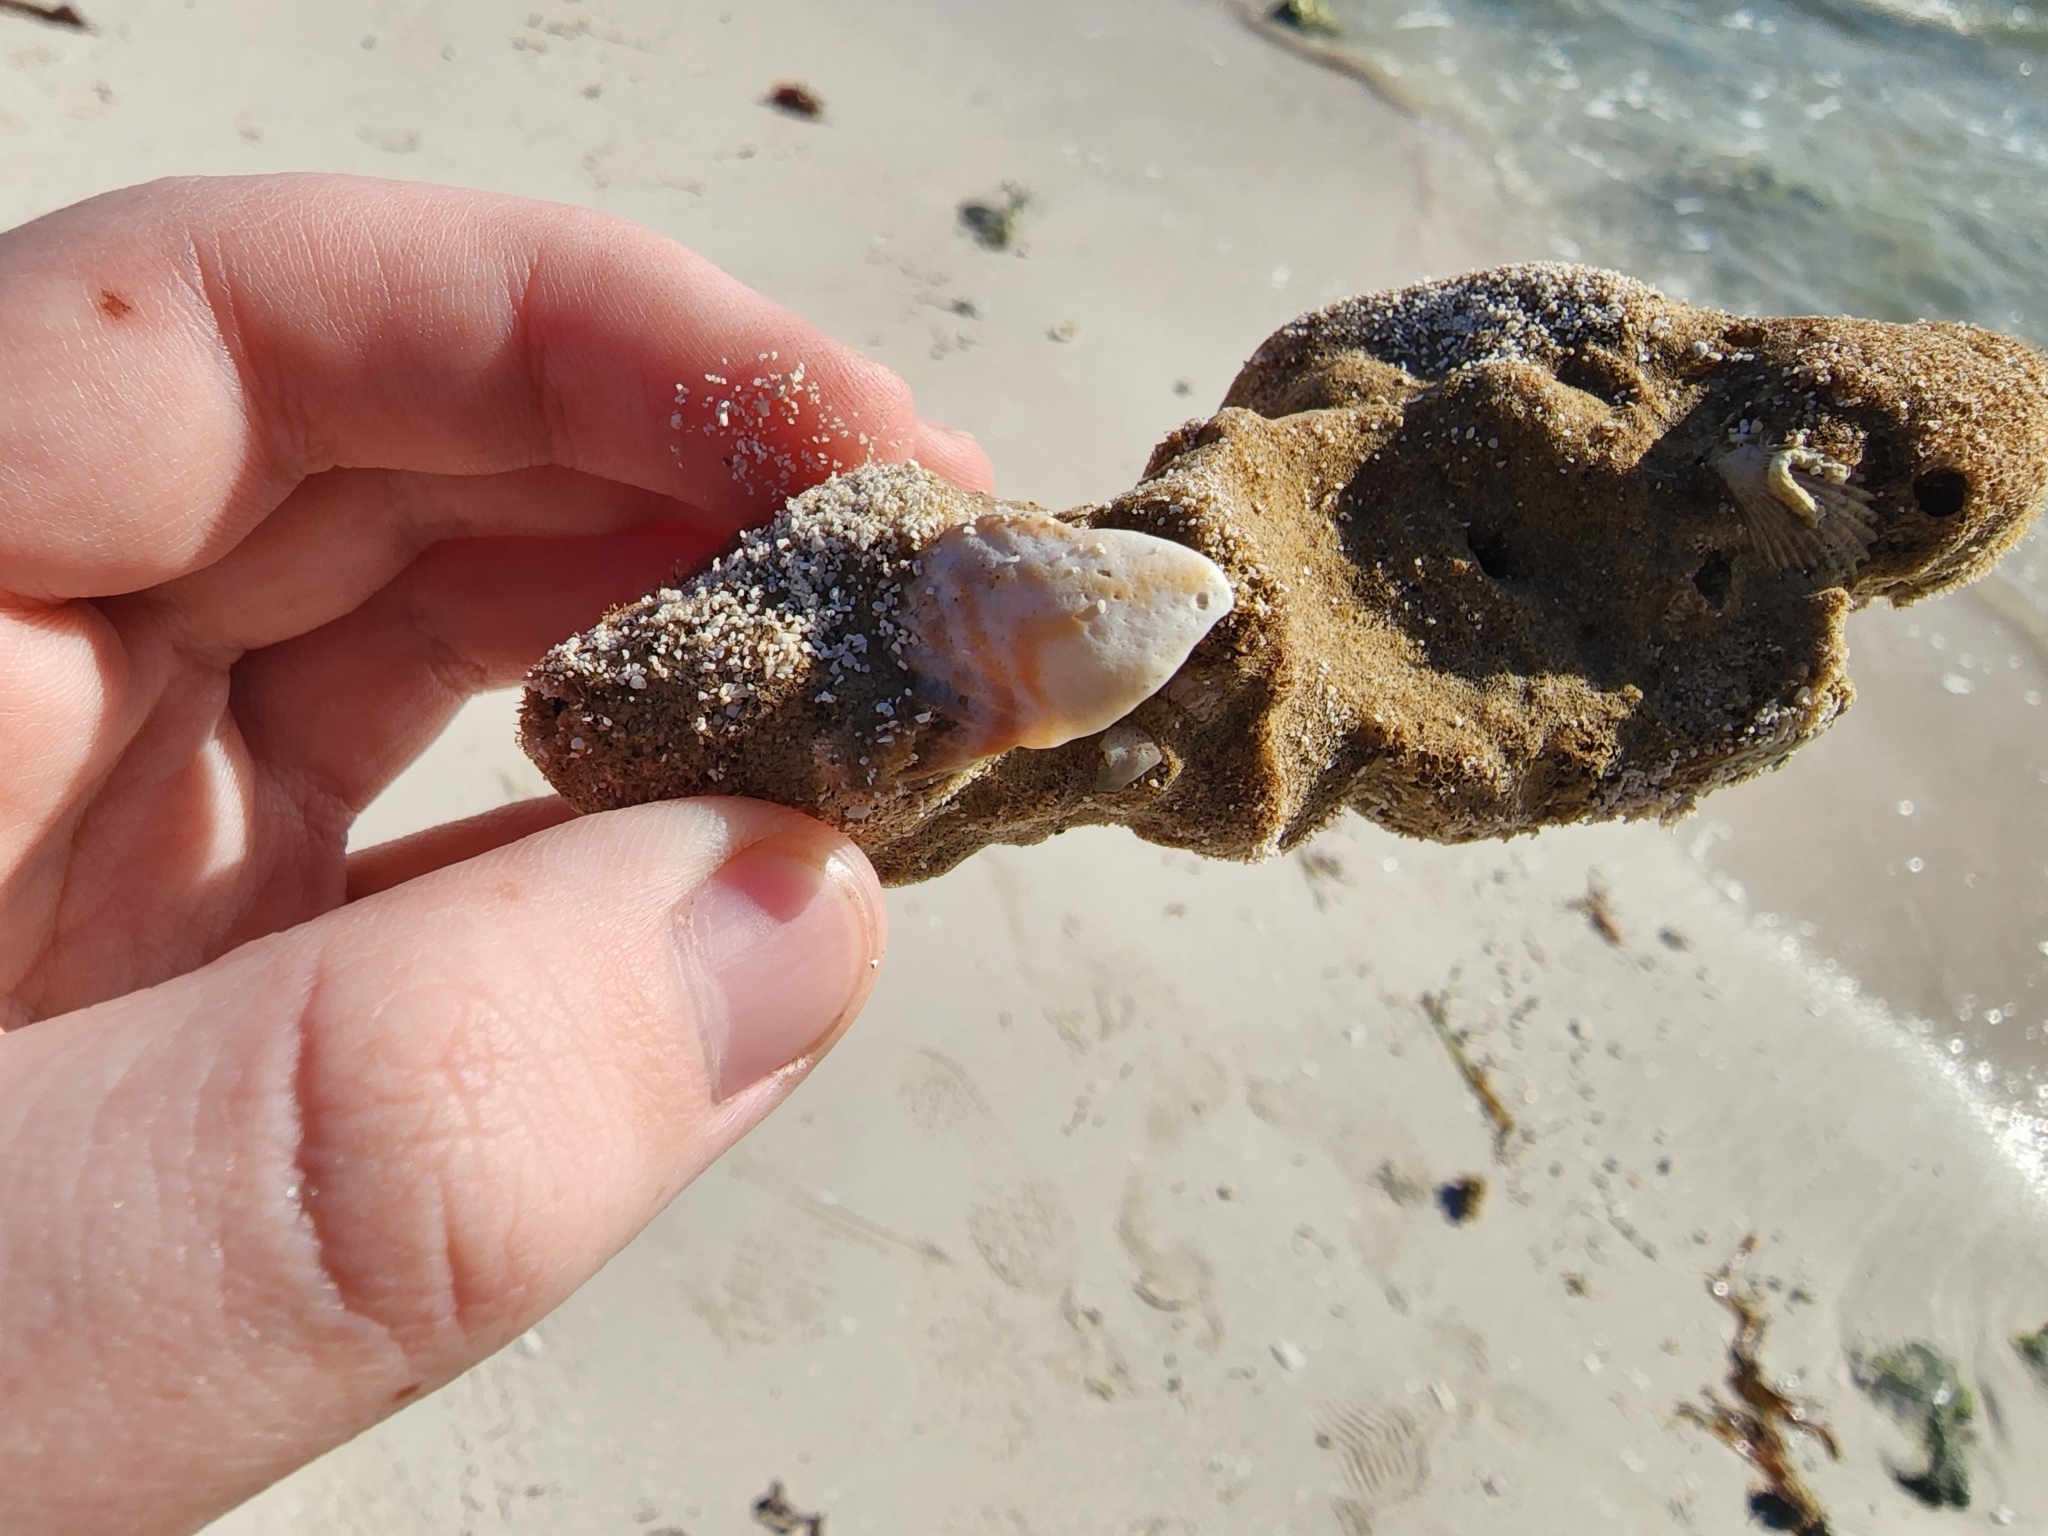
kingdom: Animalia
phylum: Mollusca
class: Bivalvia
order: Arcida
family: Arcidae
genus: Arca
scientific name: Arca zebra
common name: Atlantic turkey wing
